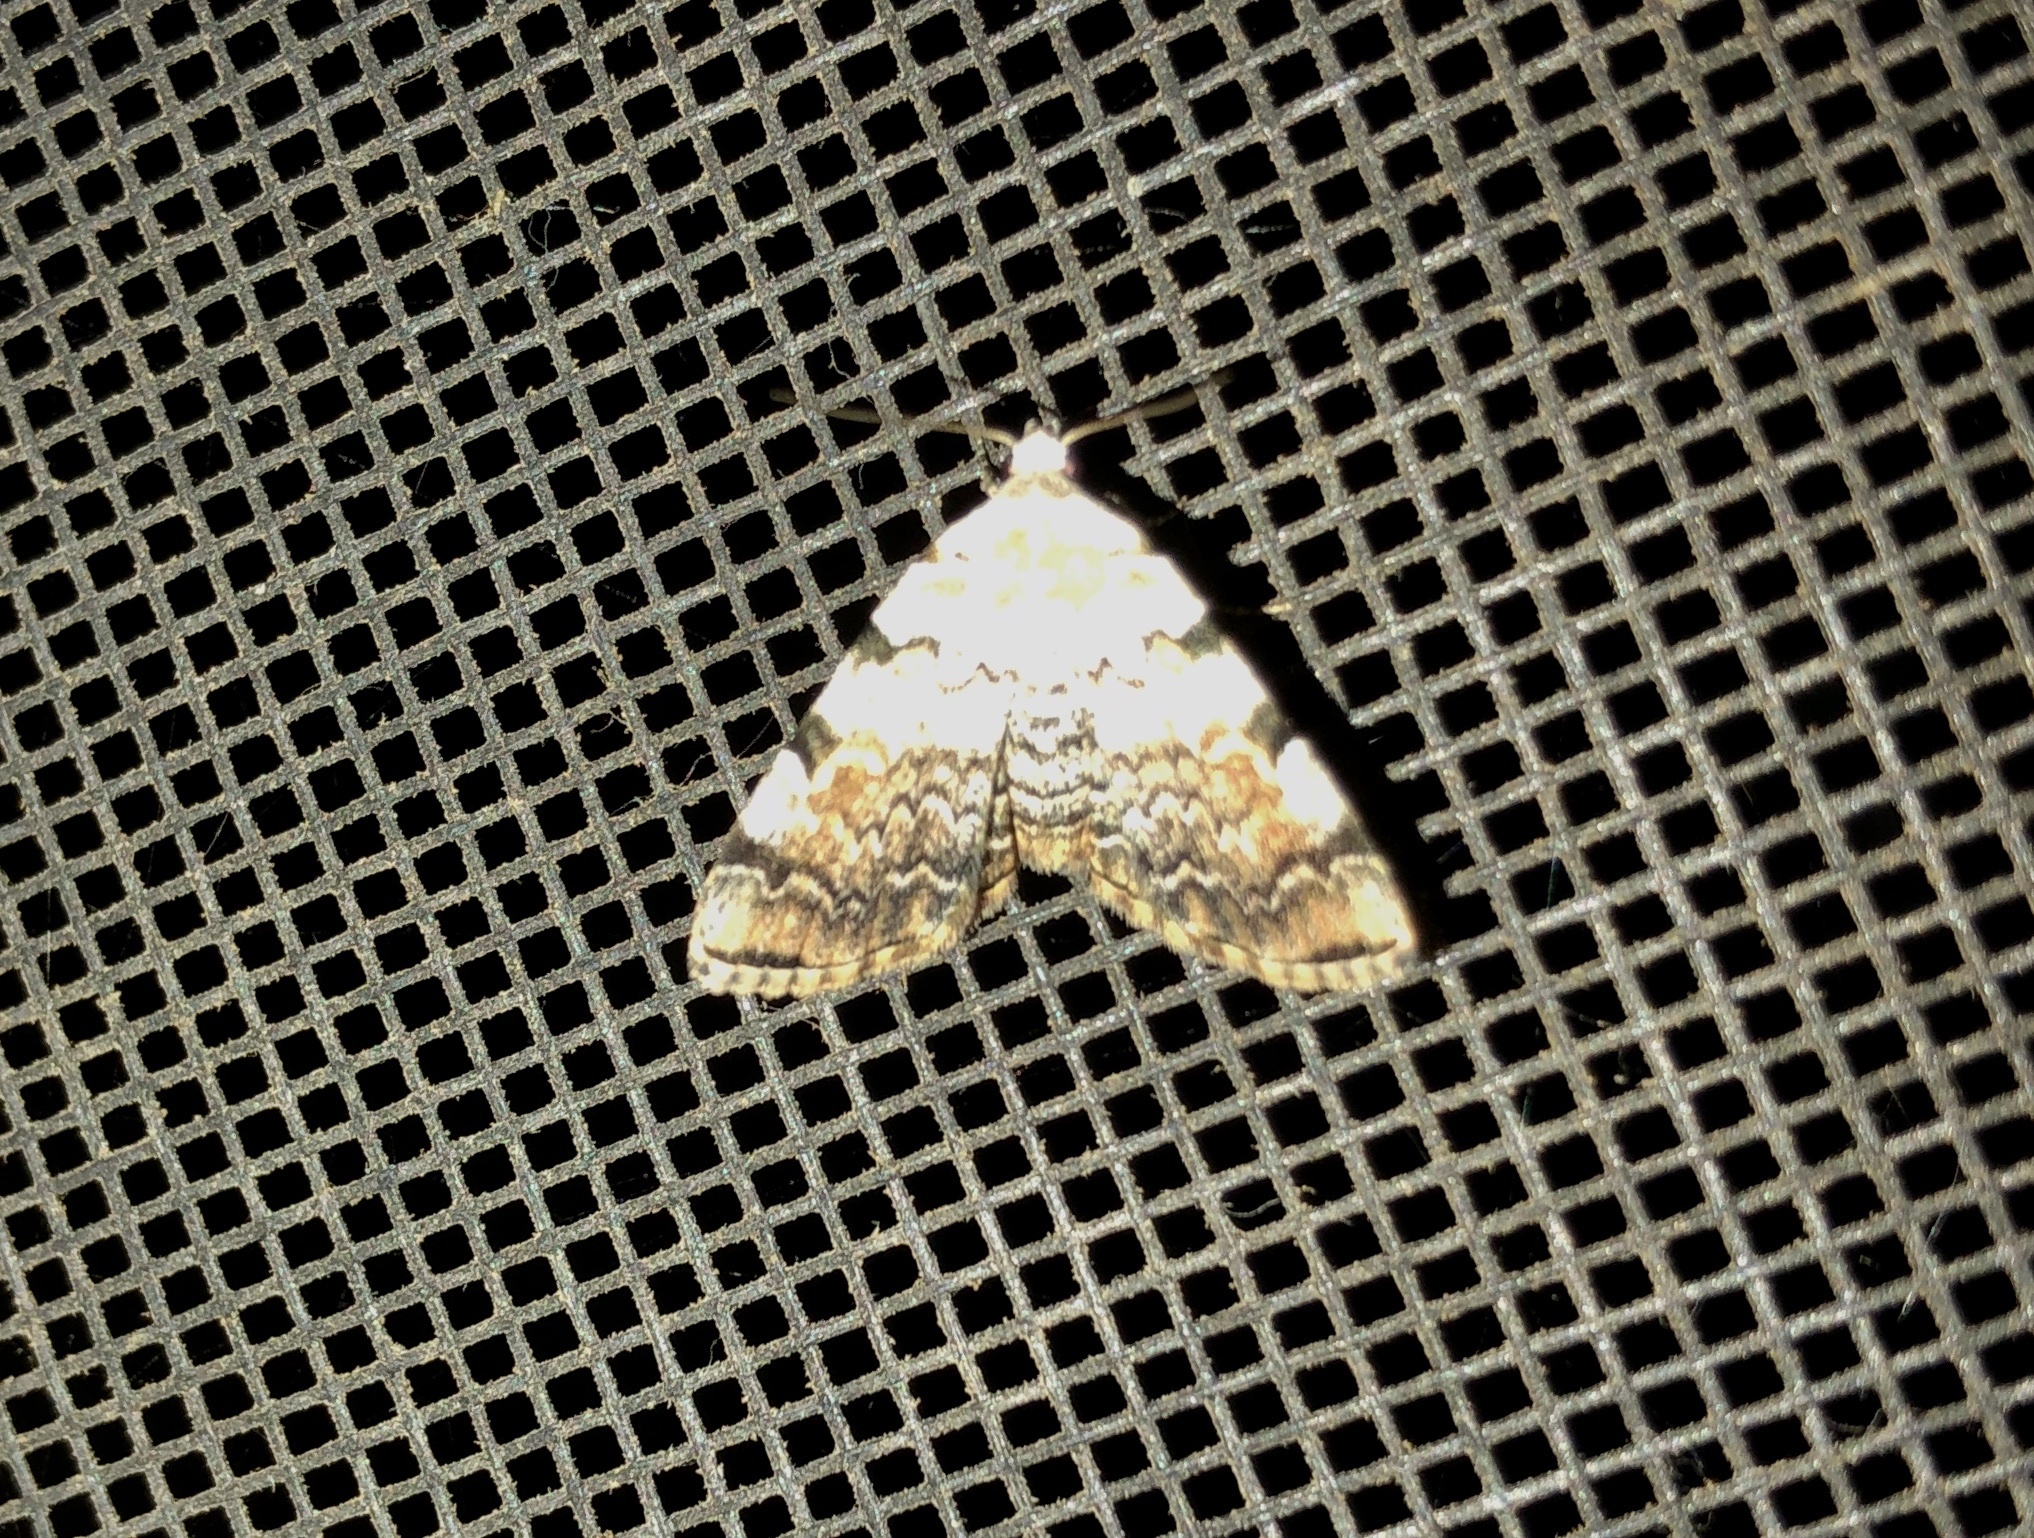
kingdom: Animalia
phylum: Arthropoda
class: Insecta
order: Lepidoptera
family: Erebidae
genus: Idia
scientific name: Idia americalis
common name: American idia moth
